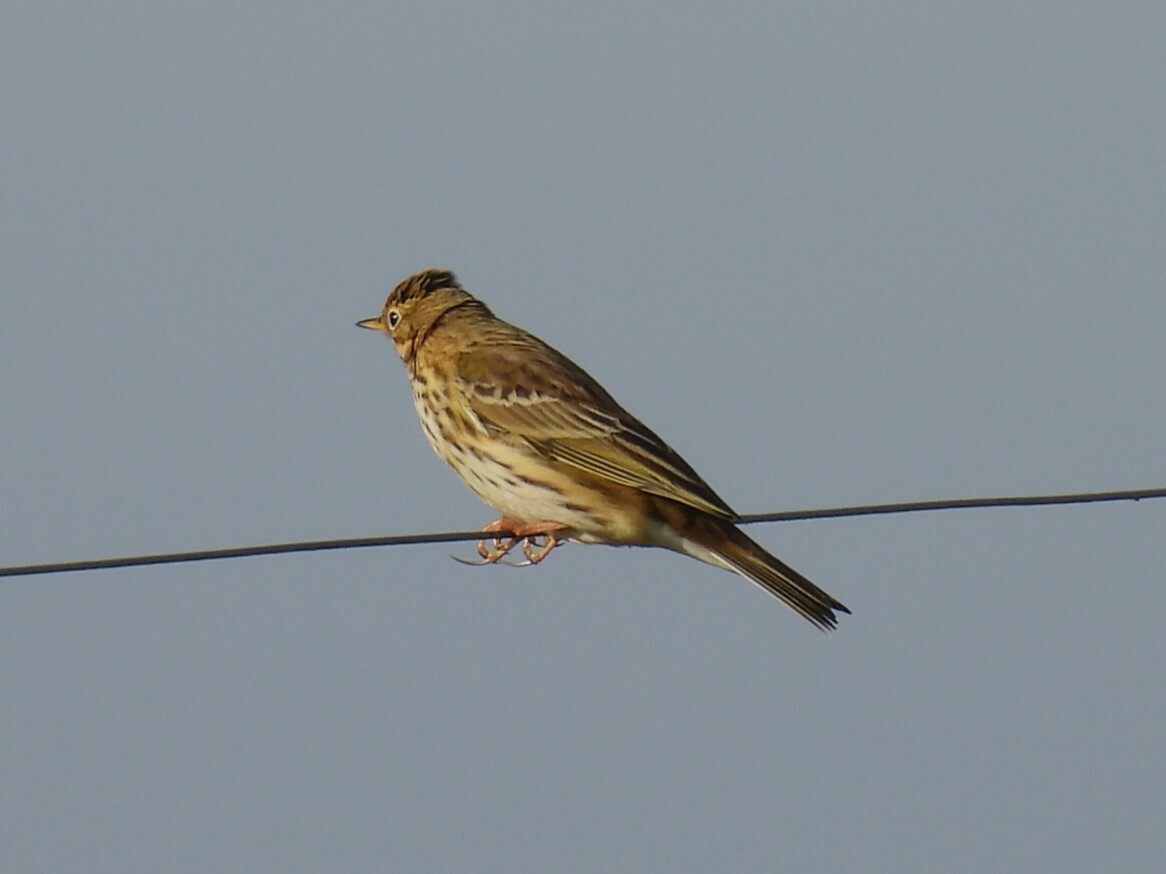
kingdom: Animalia
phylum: Chordata
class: Aves
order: Passeriformes
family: Motacillidae
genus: Anthus
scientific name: Anthus pratensis
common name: Meadow pipit
